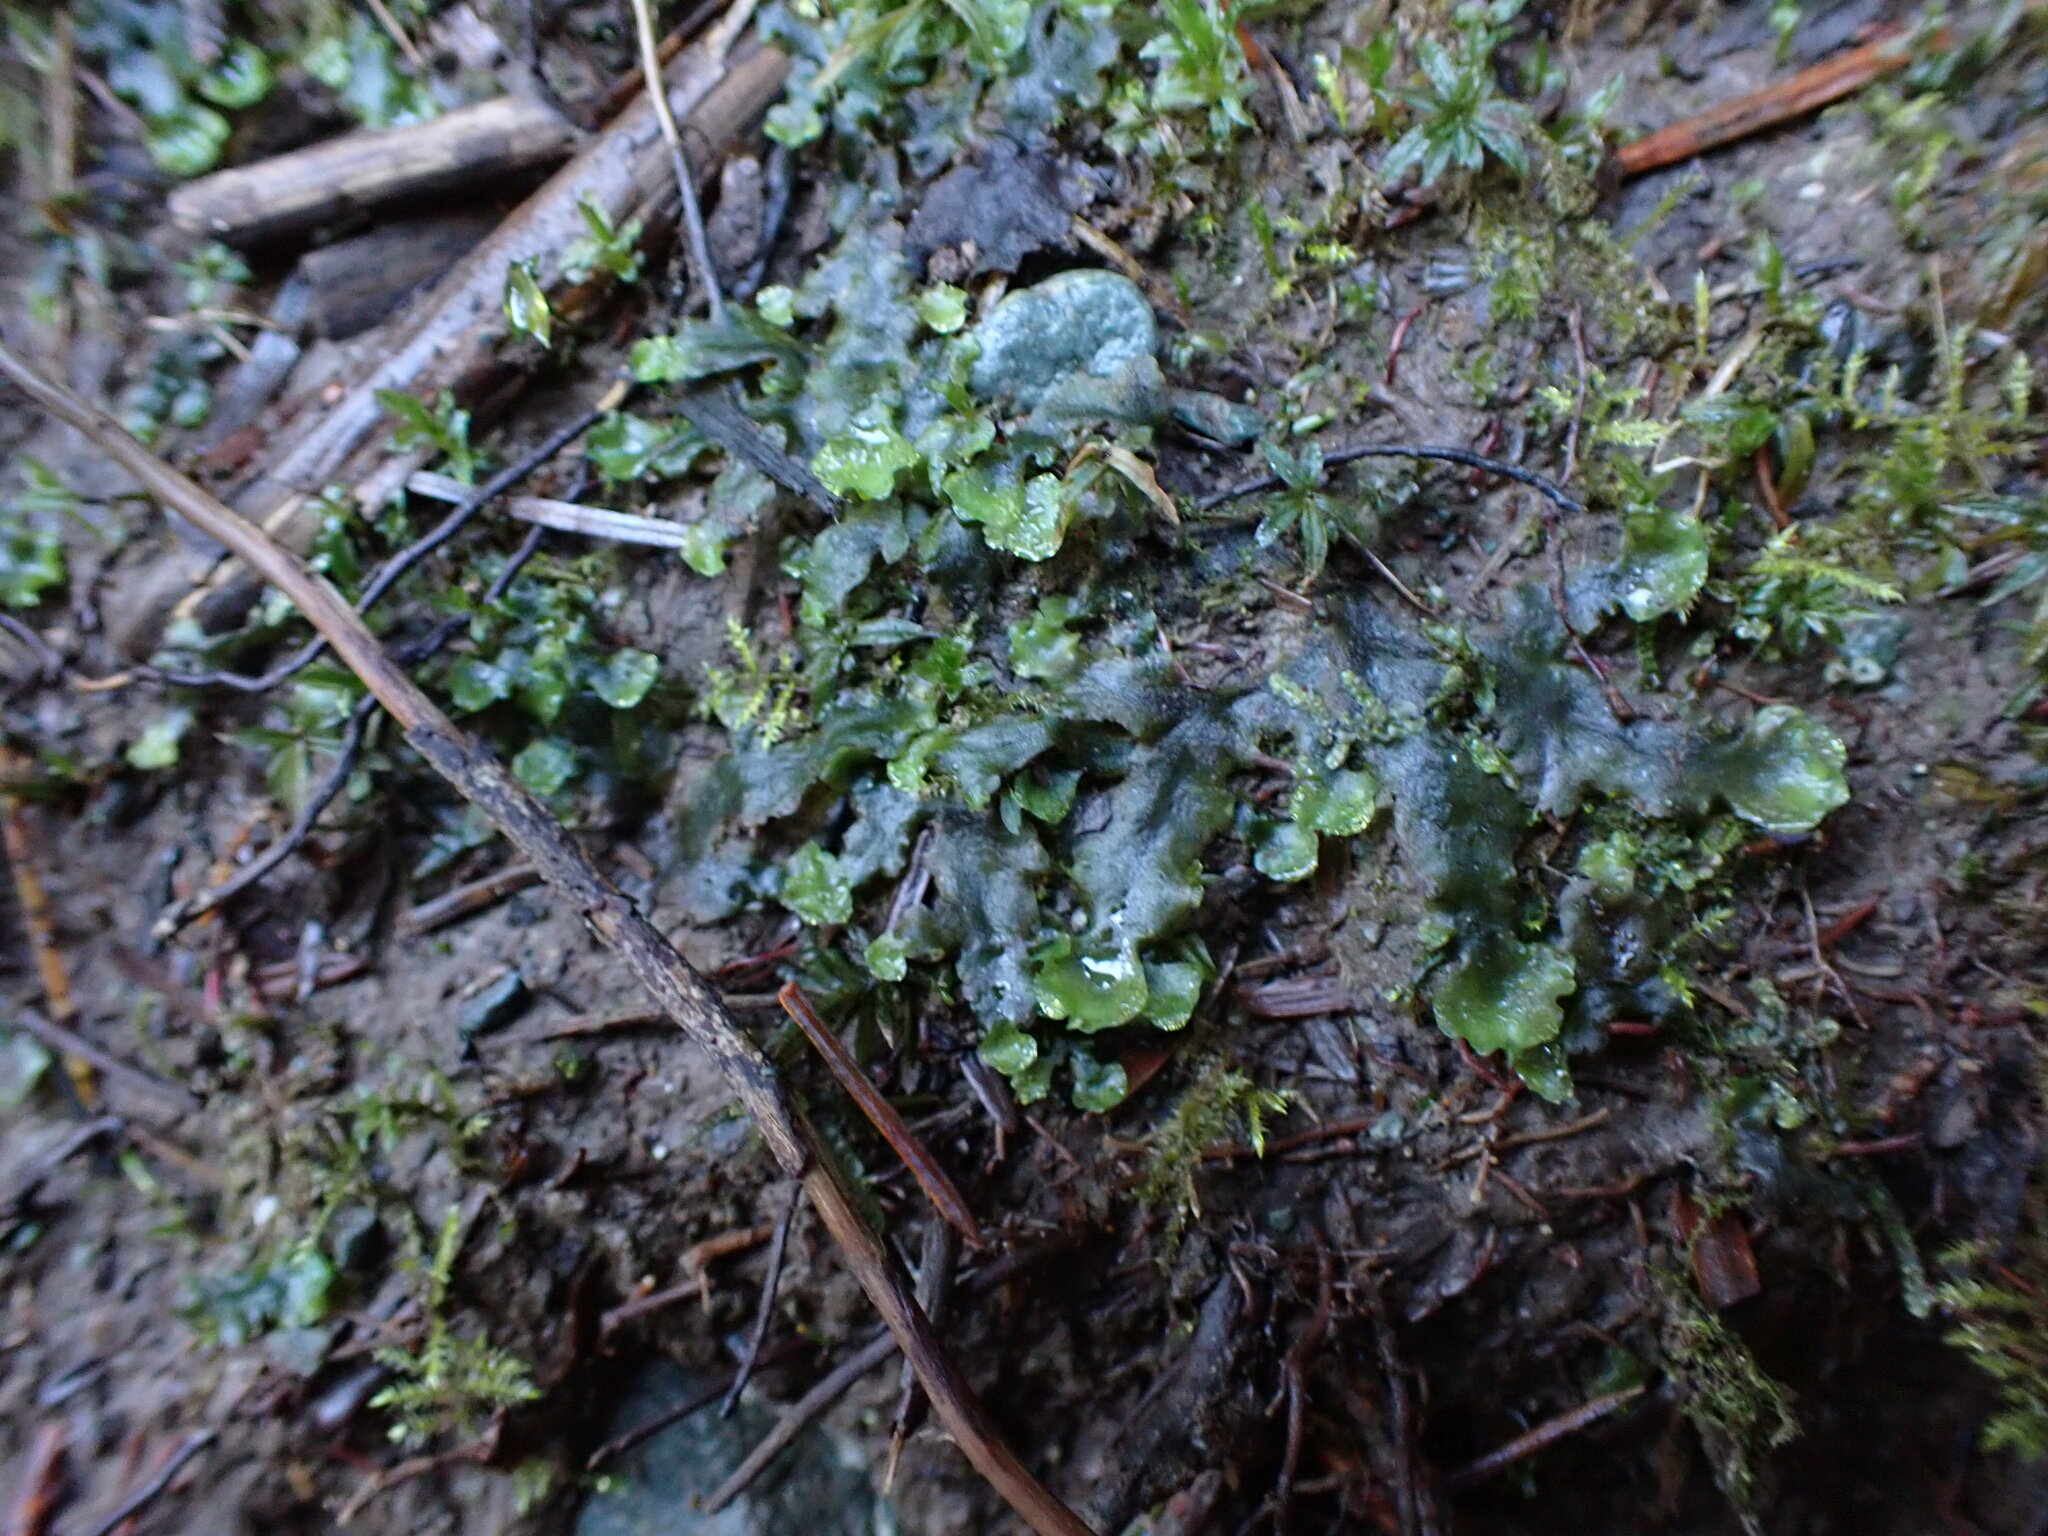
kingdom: Plantae
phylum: Marchantiophyta
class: Jungermanniopsida
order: Pelliales
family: Pelliaceae
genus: Pellia
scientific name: Pellia neesiana
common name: Nees  pellia
